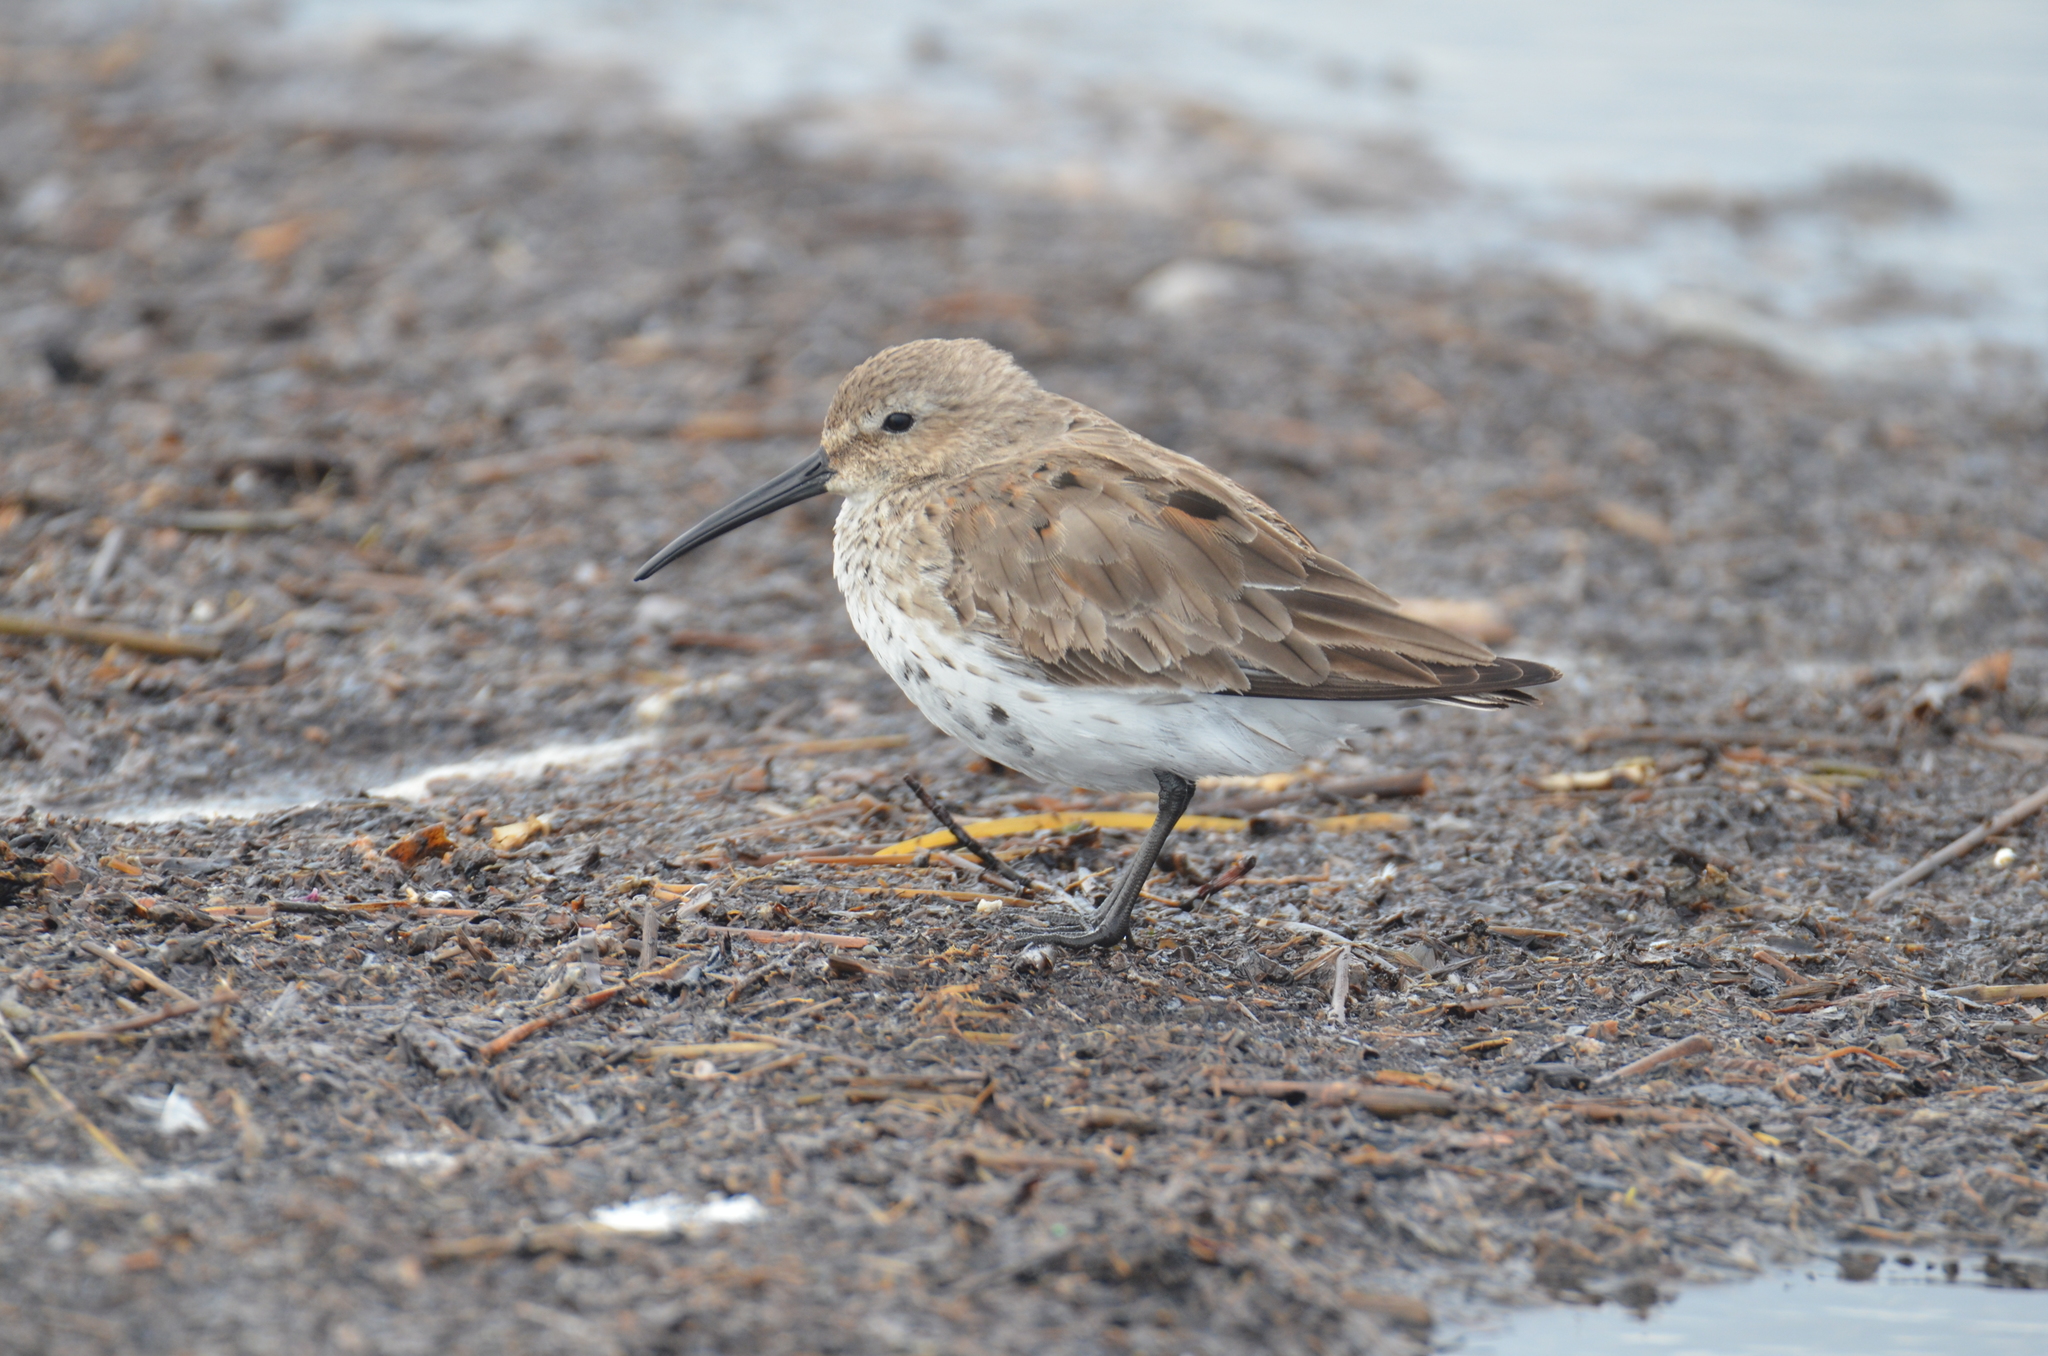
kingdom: Animalia
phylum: Chordata
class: Aves
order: Charadriiformes
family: Scolopacidae
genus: Calidris
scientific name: Calidris alpina
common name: Dunlin
